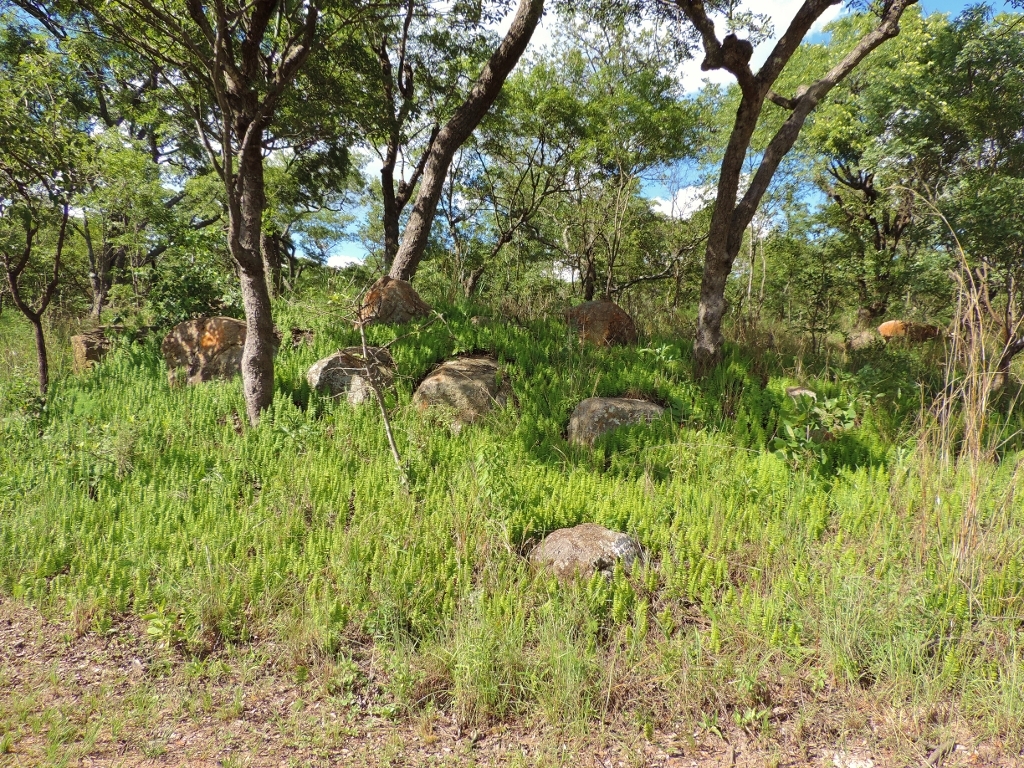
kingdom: Plantae
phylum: Tracheophyta
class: Polypodiopsida
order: Polypodiales
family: Tectariaceae
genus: Arthropteris
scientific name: Arthropteris orientalis
